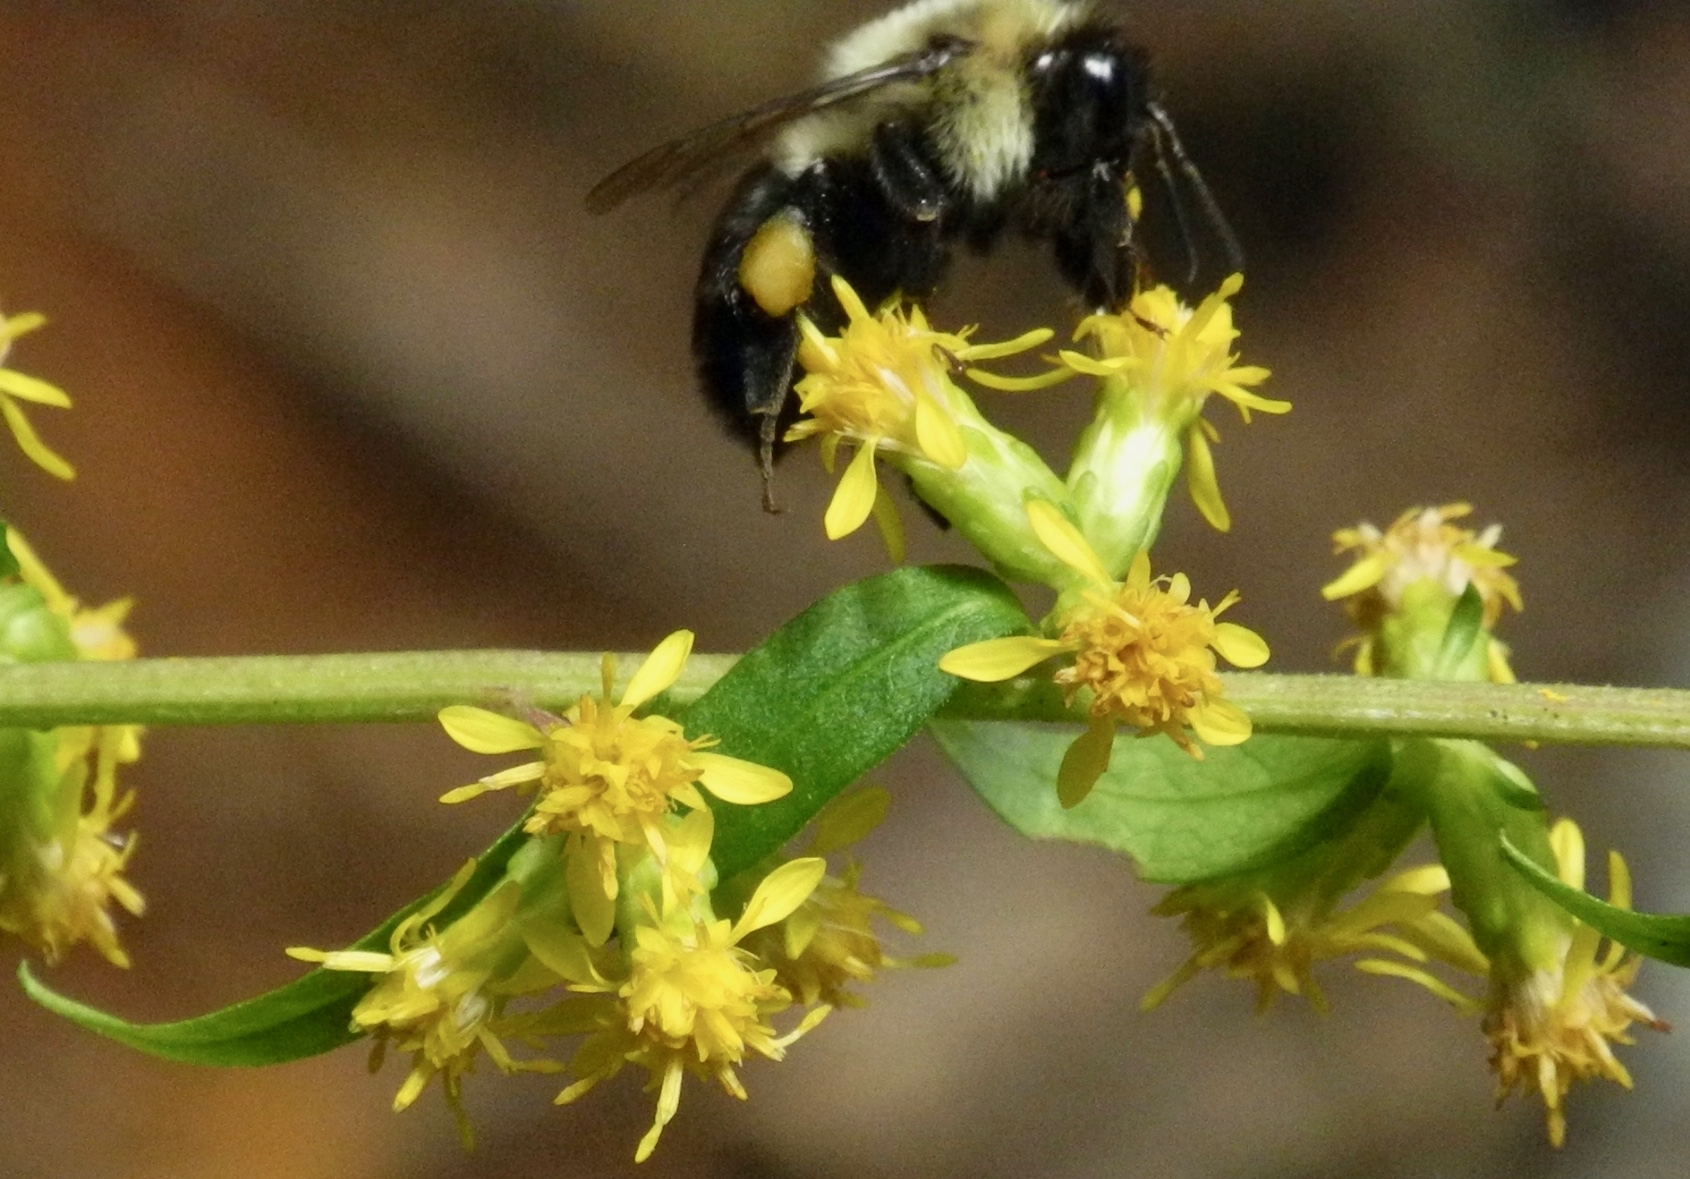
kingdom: Animalia
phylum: Arthropoda
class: Insecta
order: Hymenoptera
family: Apidae
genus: Bombus
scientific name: Bombus impatiens
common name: Common eastern bumble bee
